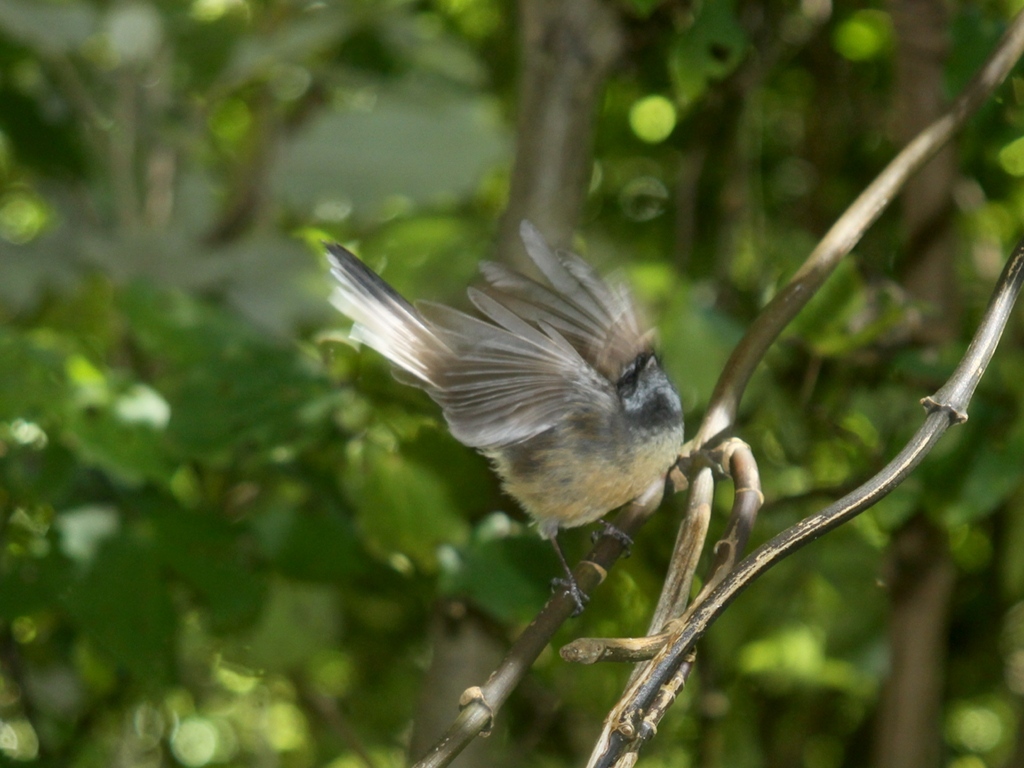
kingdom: Animalia
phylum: Chordata
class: Aves
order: Passeriformes
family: Rhipiduridae
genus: Rhipidura
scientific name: Rhipidura fuliginosa
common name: New zealand fantail
